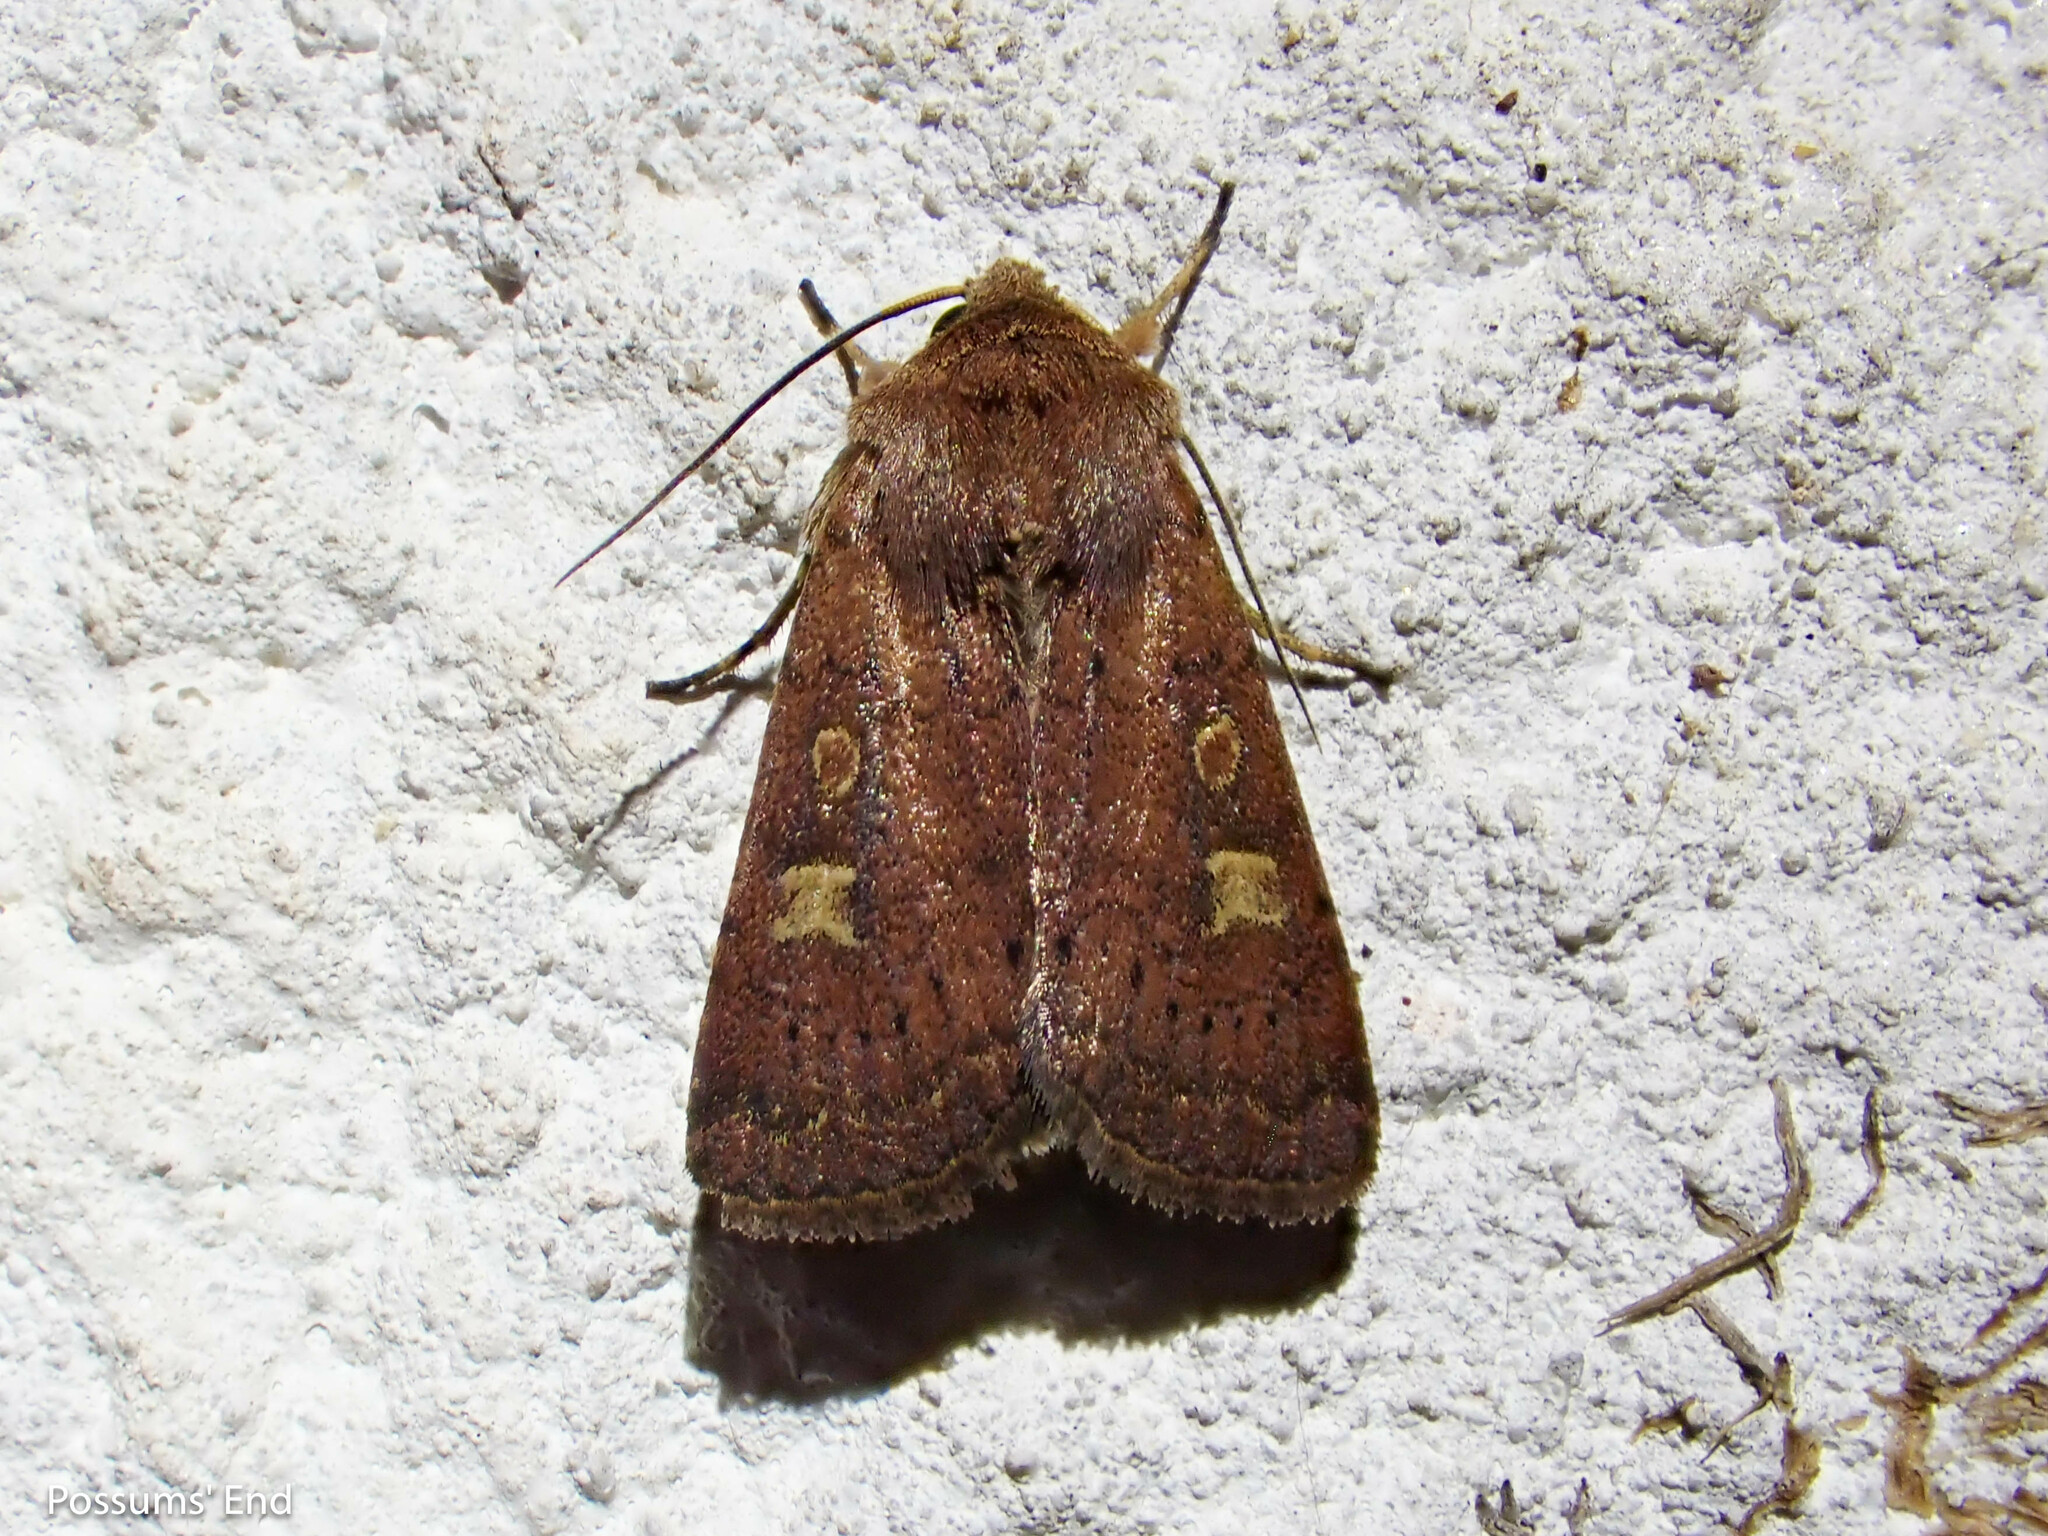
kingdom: Animalia
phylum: Arthropoda
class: Insecta
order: Lepidoptera
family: Noctuidae
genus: Xestia
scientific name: Xestia xanthographa
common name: Square-spot rustic
